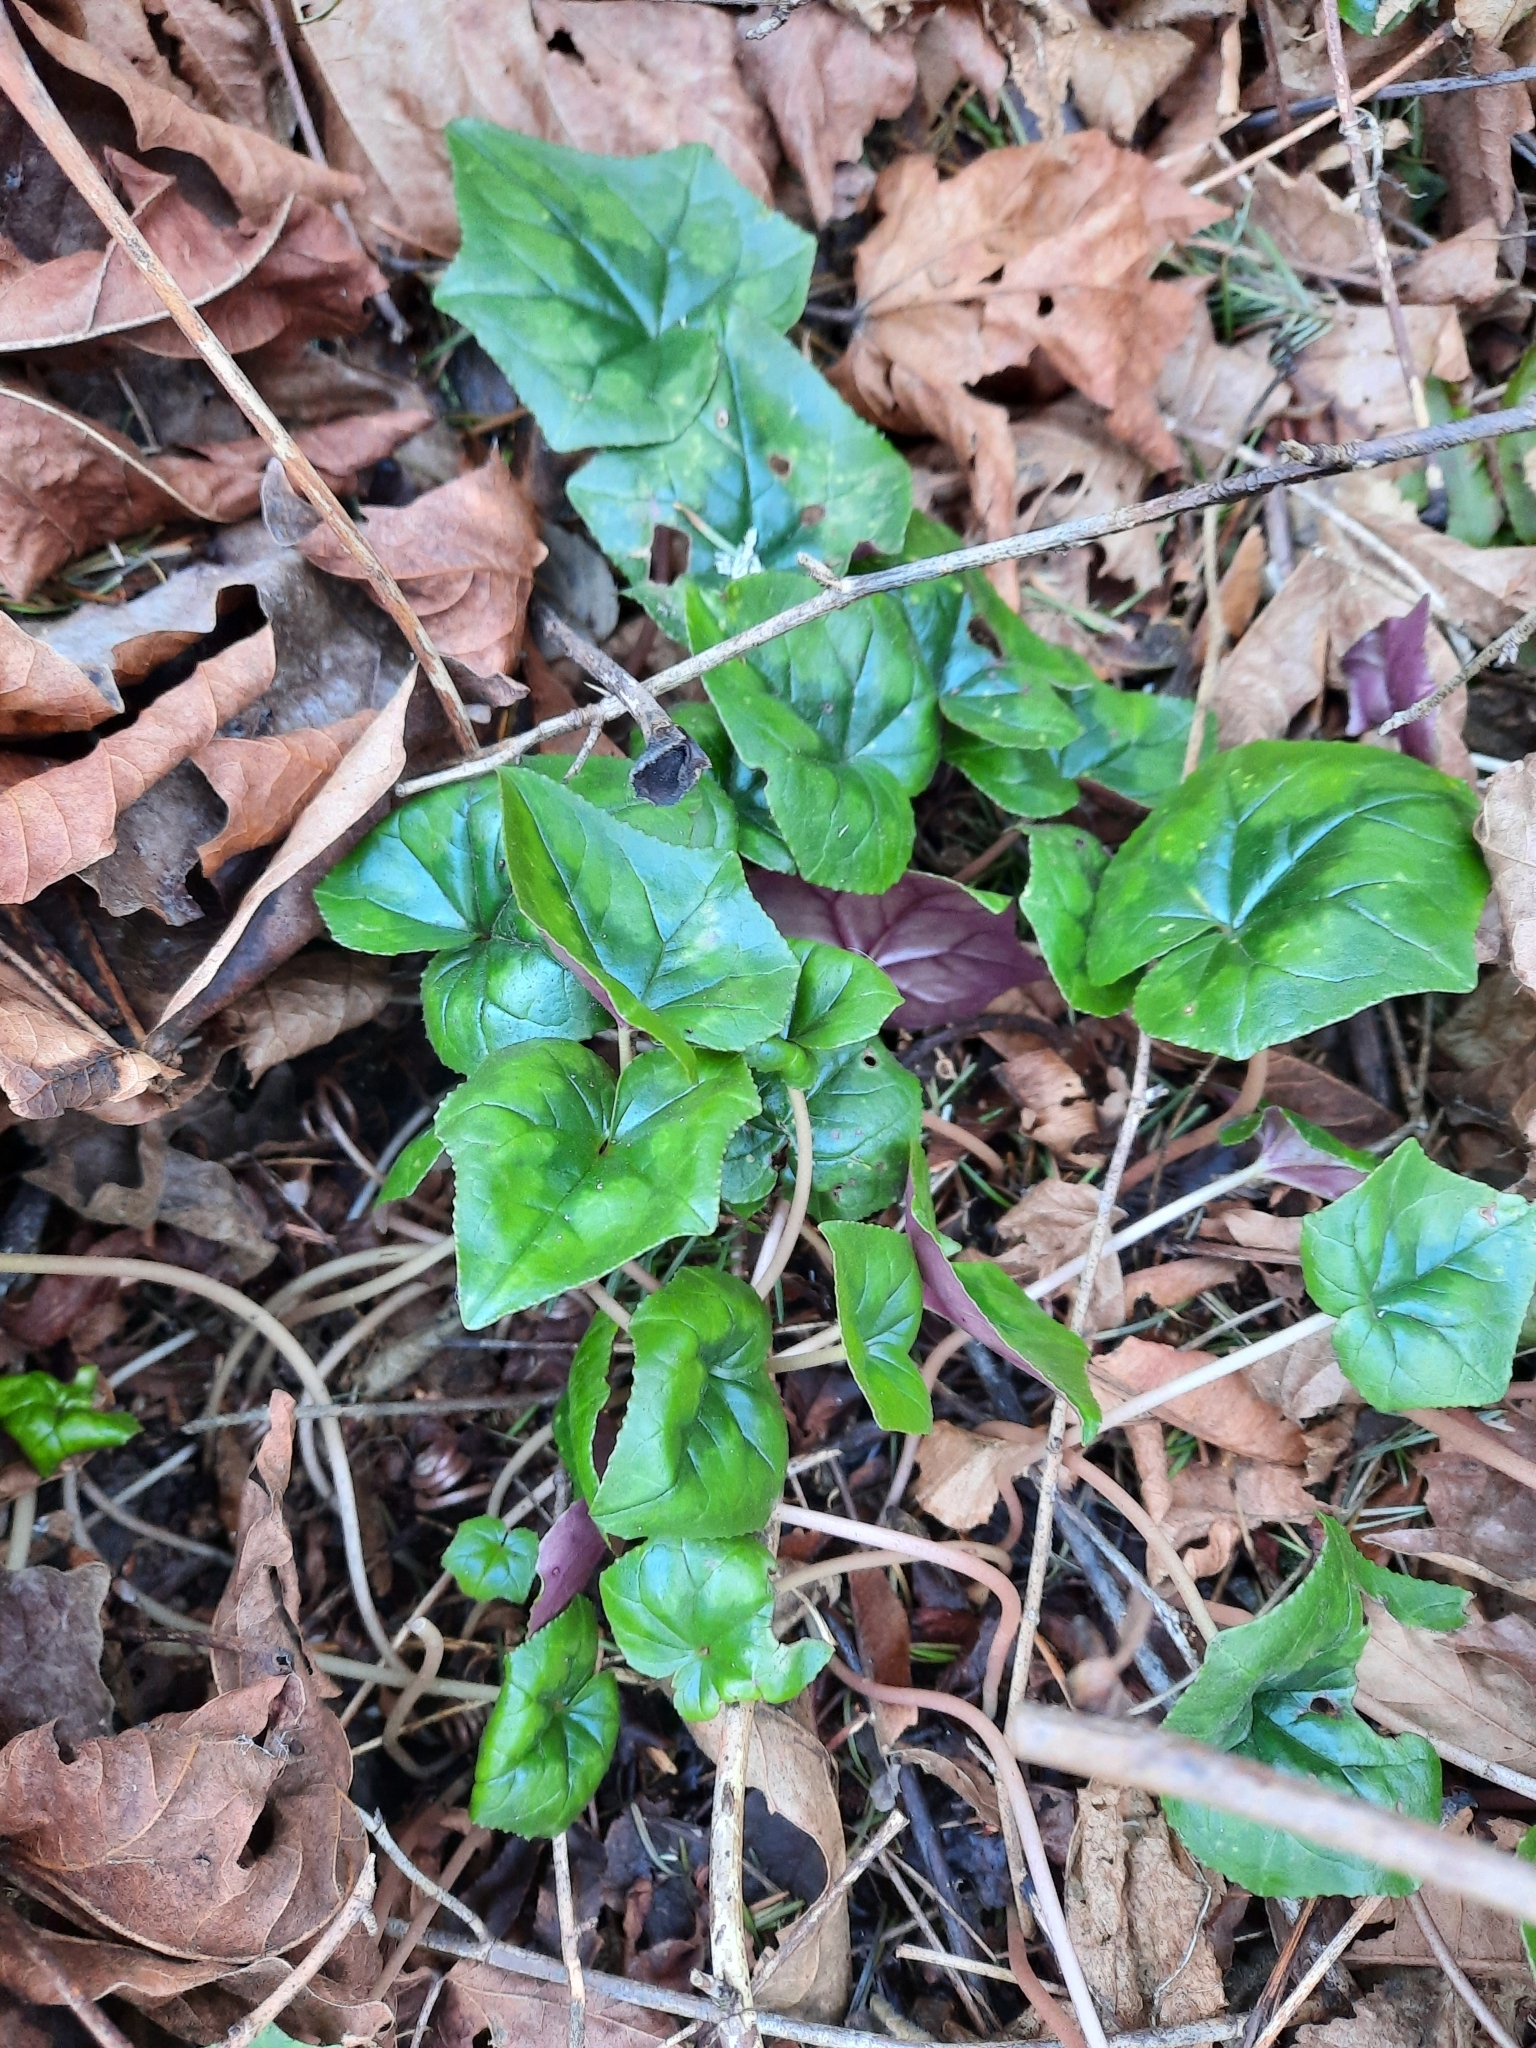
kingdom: Plantae
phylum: Tracheophyta
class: Magnoliopsida
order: Ericales
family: Primulaceae
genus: Cyclamen
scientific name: Cyclamen hederifolium
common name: Sowbread
